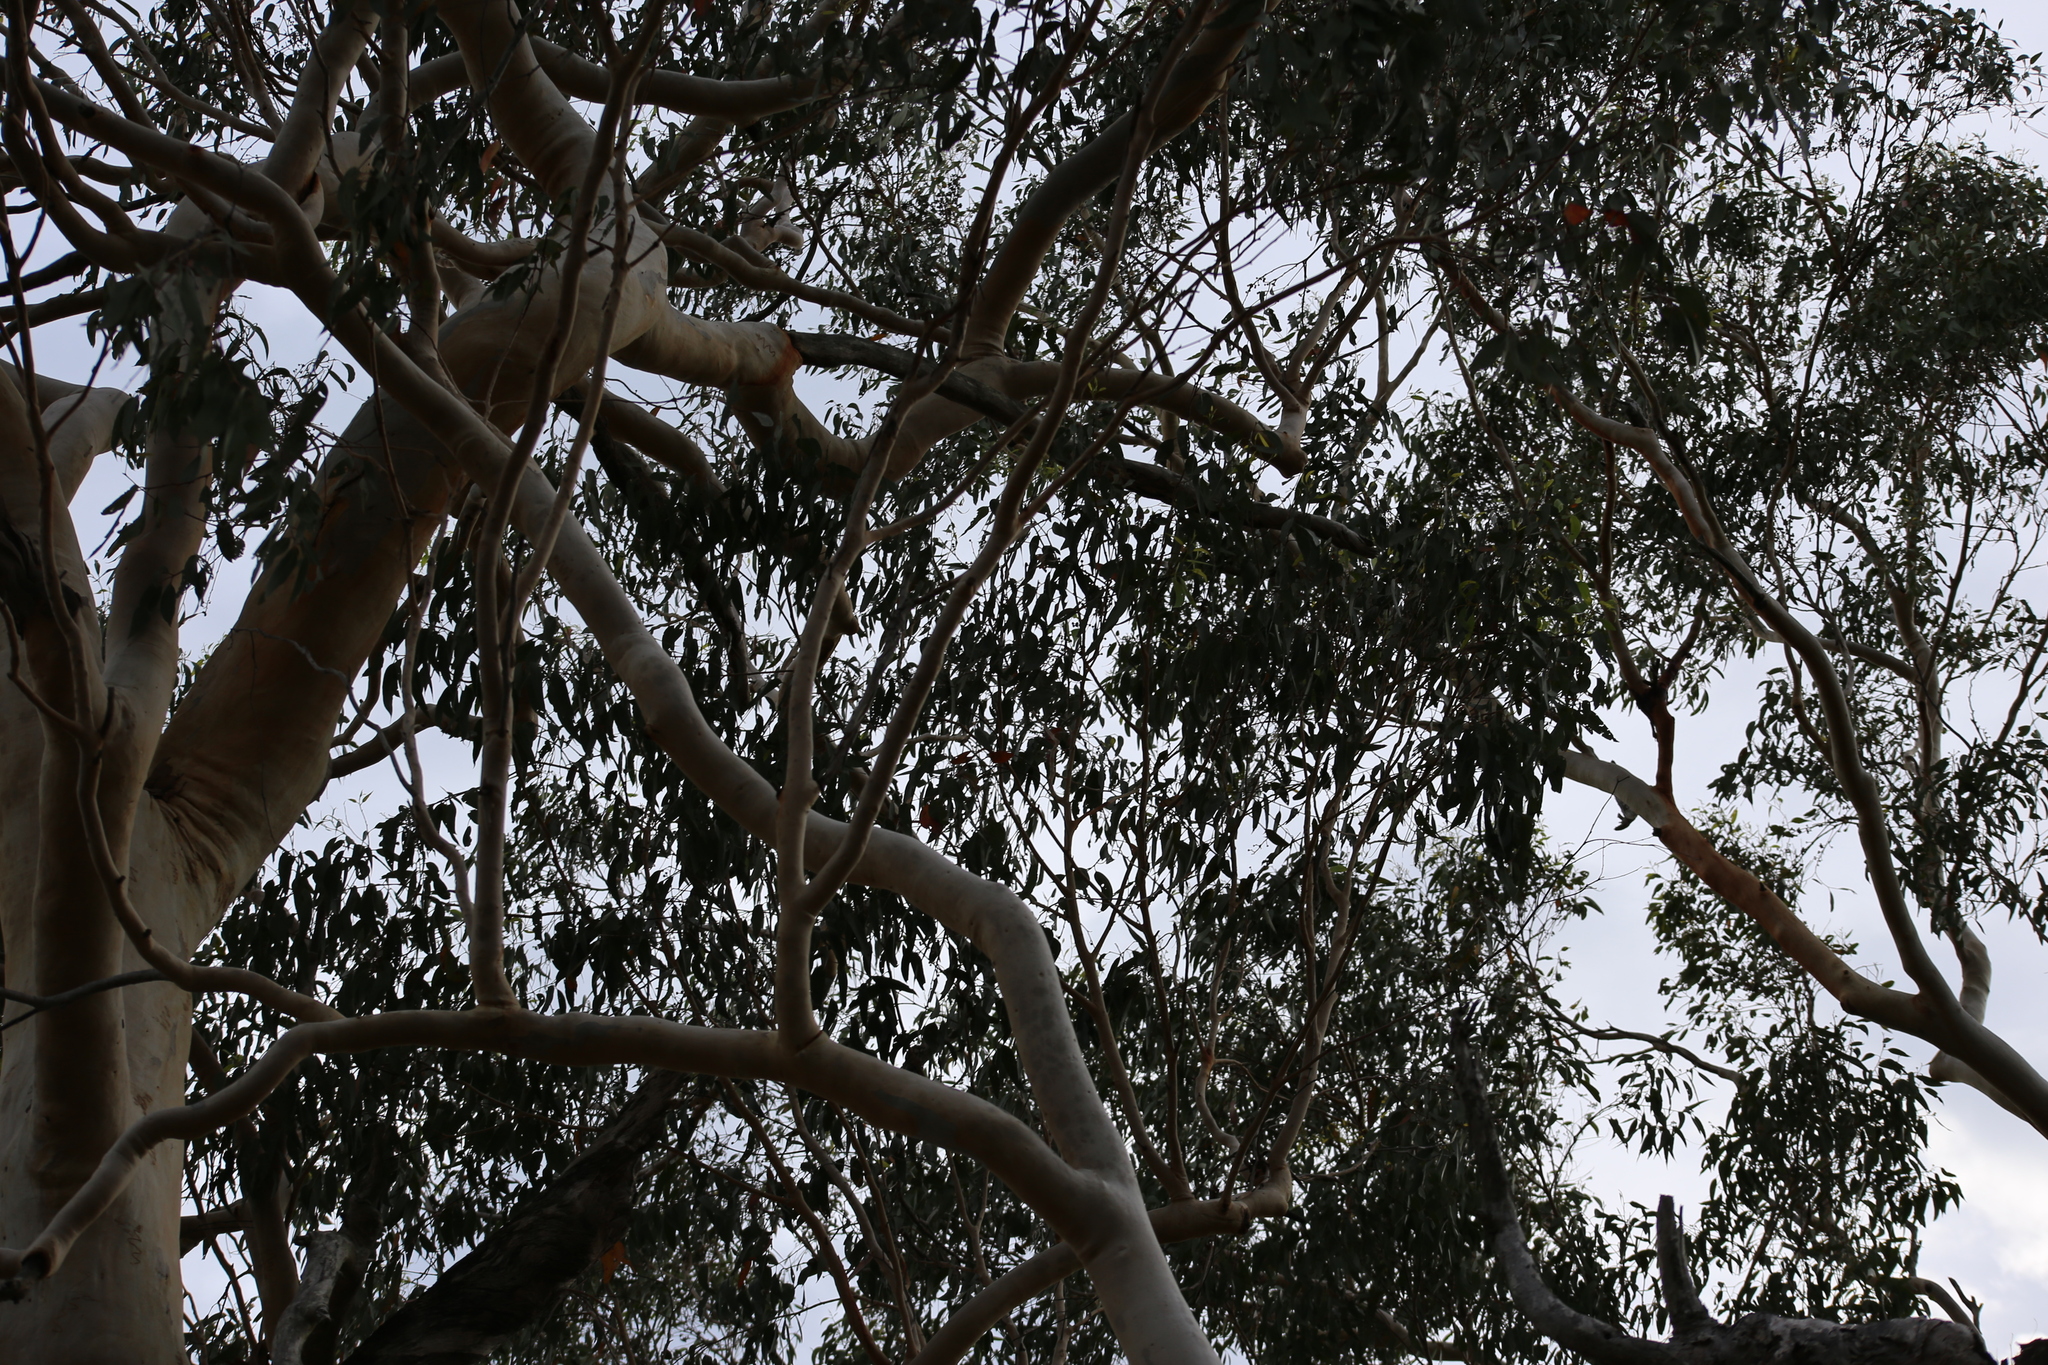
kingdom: Plantae
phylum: Tracheophyta
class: Magnoliopsida
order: Myrtales
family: Myrtaceae
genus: Eucalyptus
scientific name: Eucalyptus racemosa
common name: Scribbly gum
